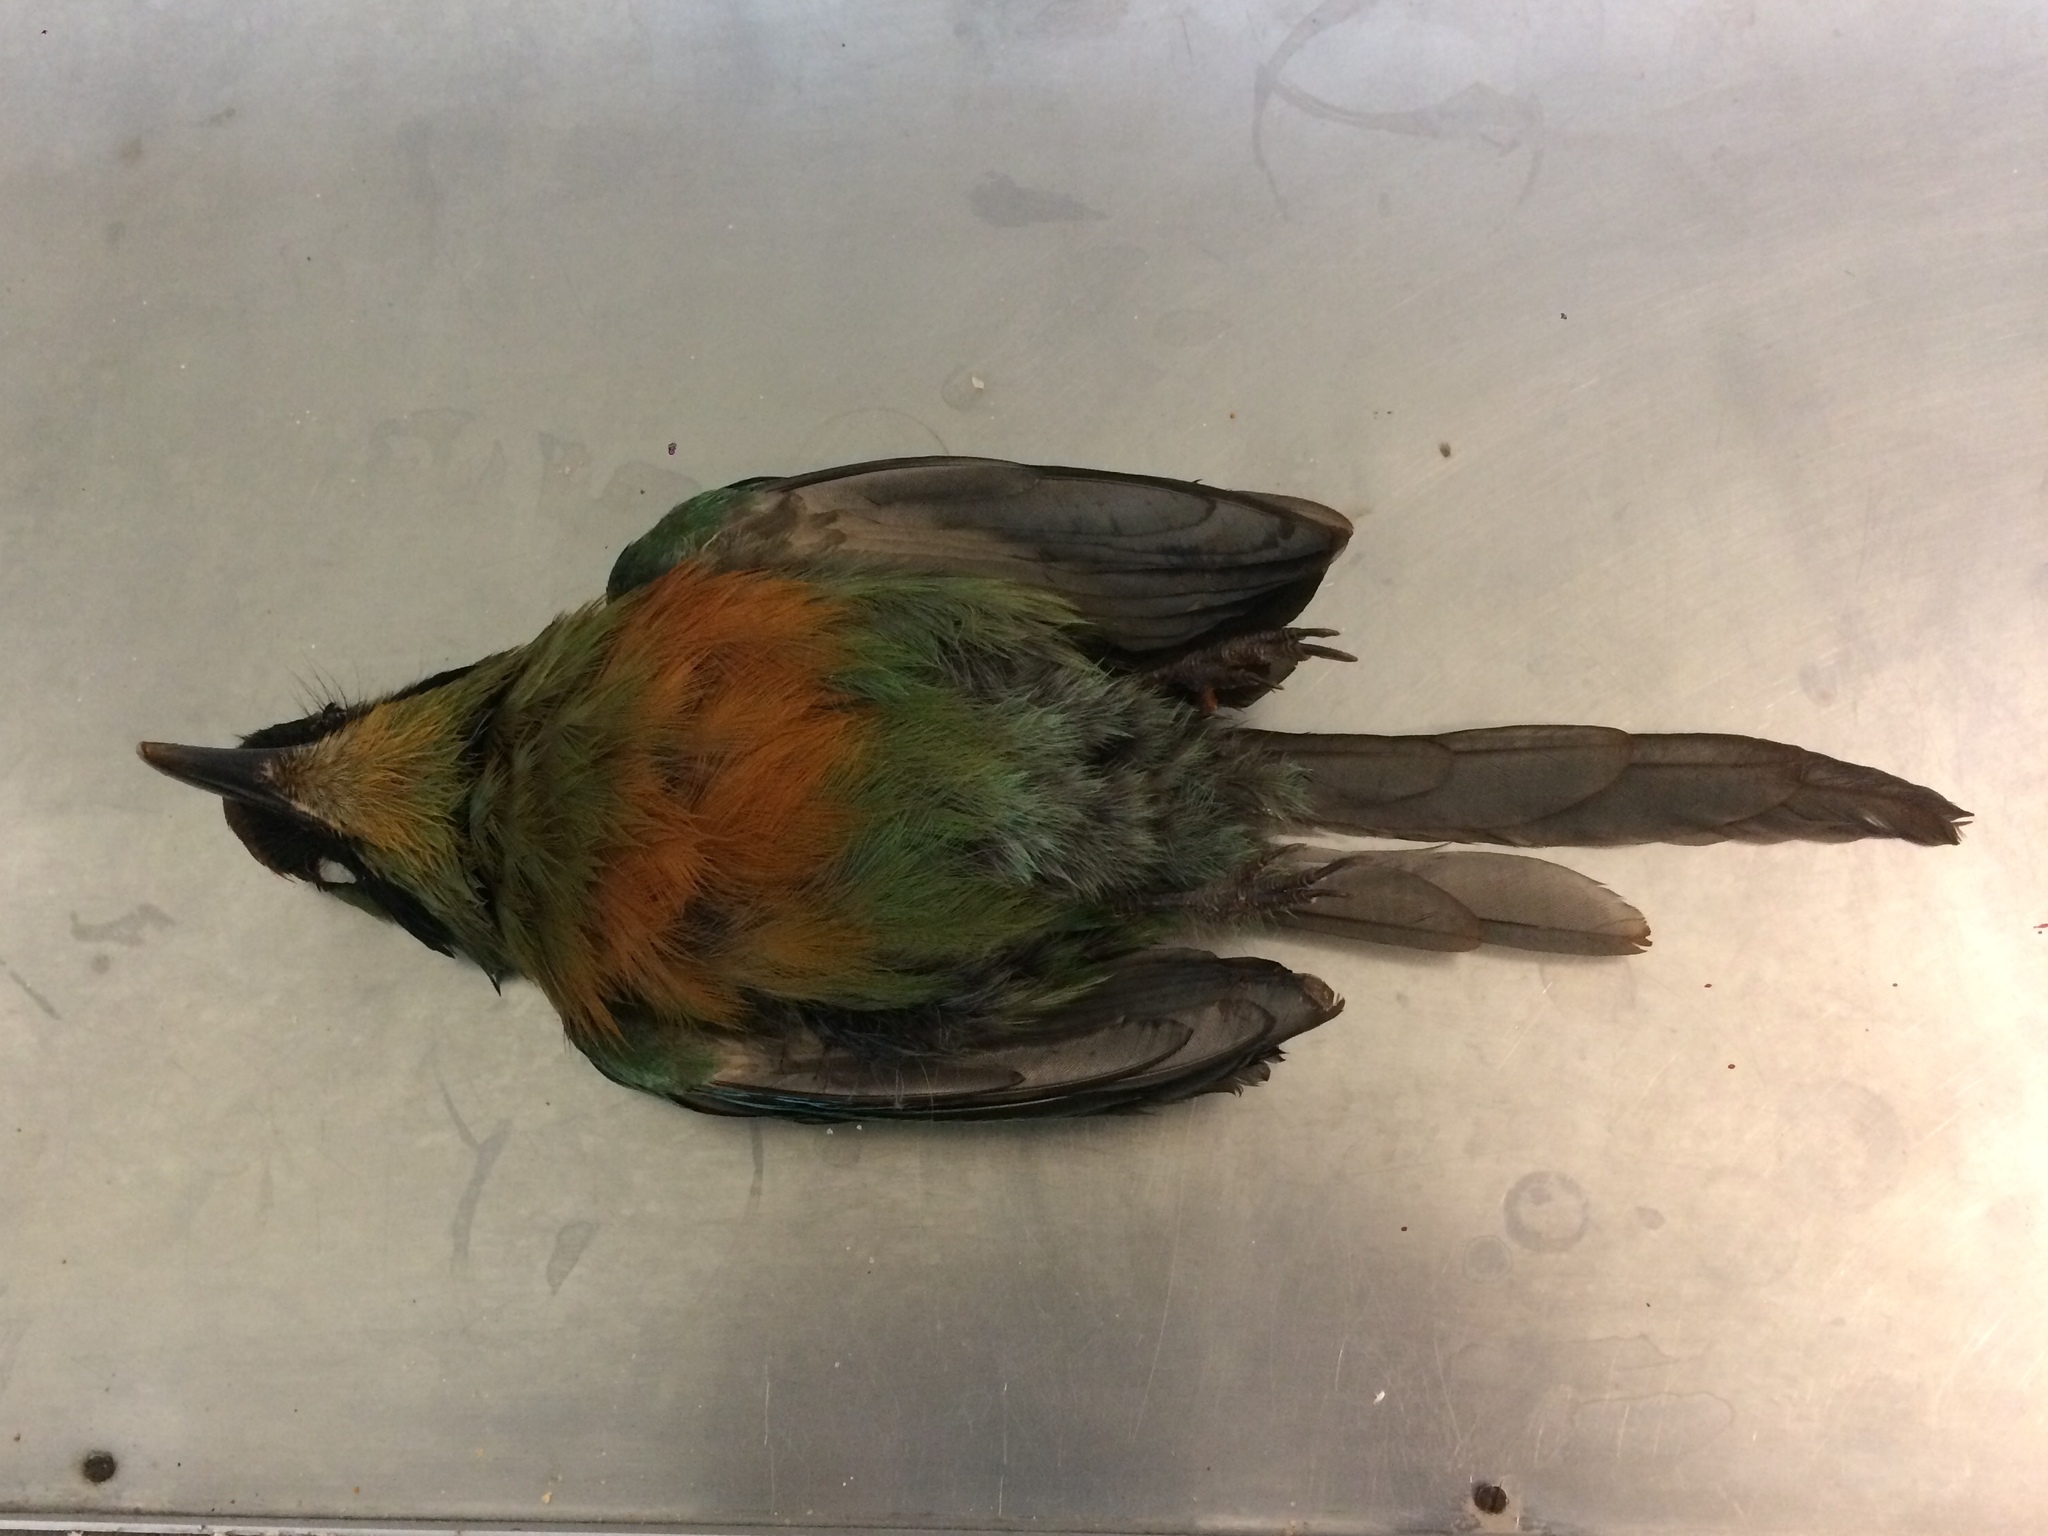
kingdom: Animalia
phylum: Chordata
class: Aves
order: Coraciiformes
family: Momotidae
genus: Baryphthengus
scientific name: Baryphthengus ruficapillus
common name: Rufous-capped motmot
